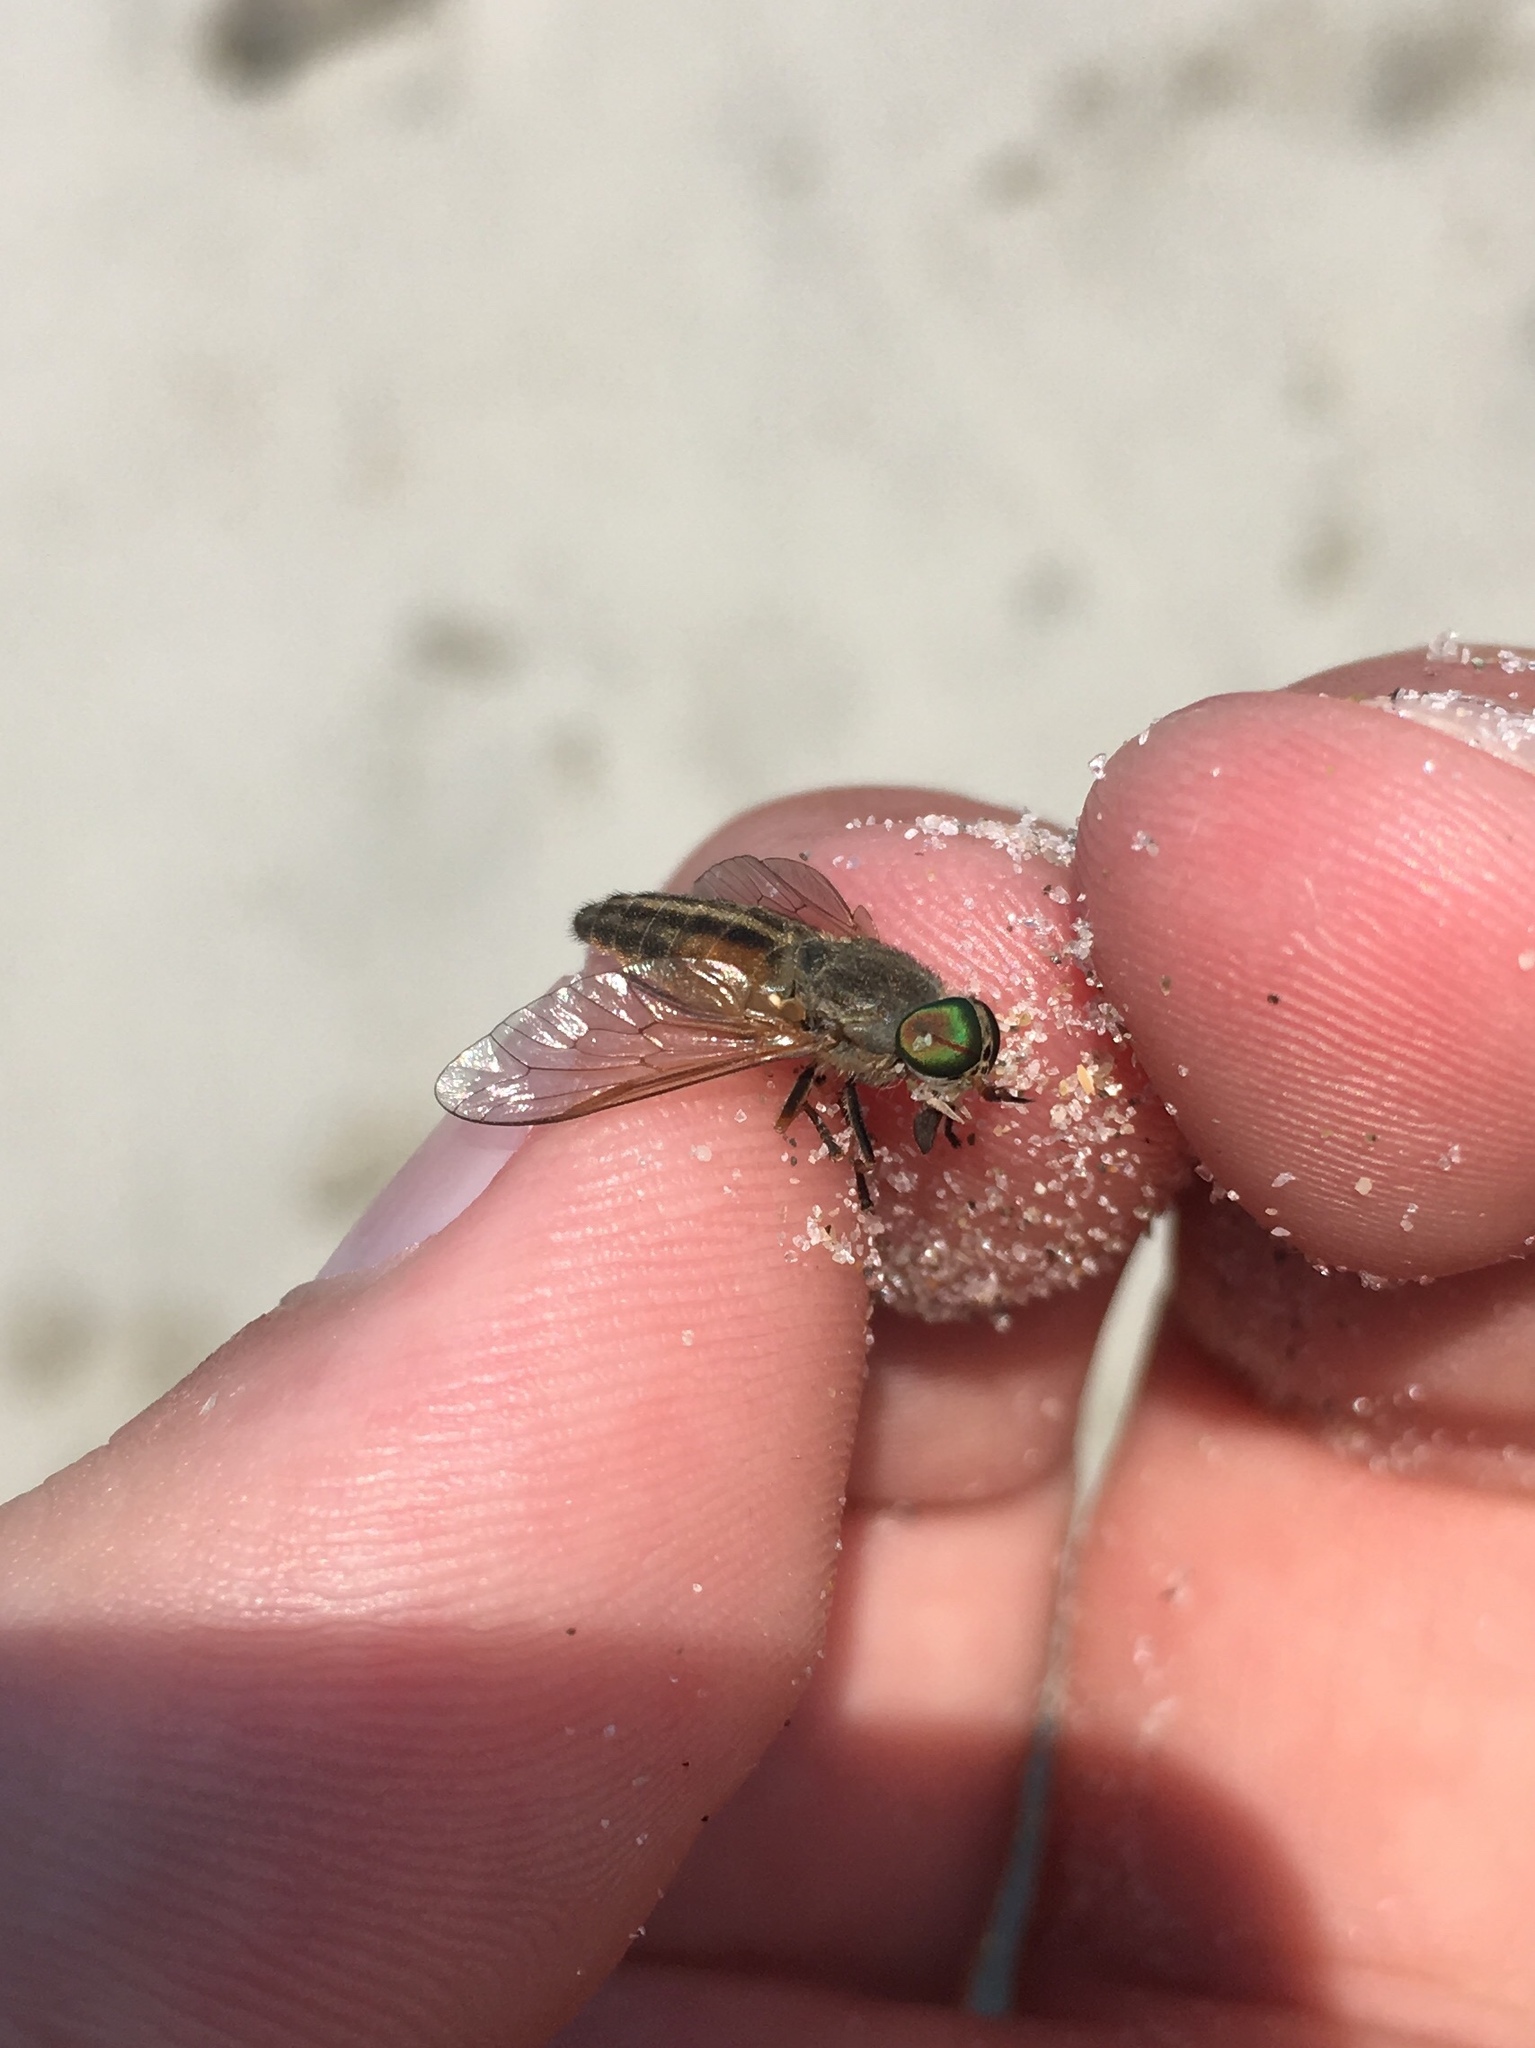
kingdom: Animalia
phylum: Arthropoda
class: Insecta
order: Diptera
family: Tabanidae
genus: Tabanus
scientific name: Tabanus
